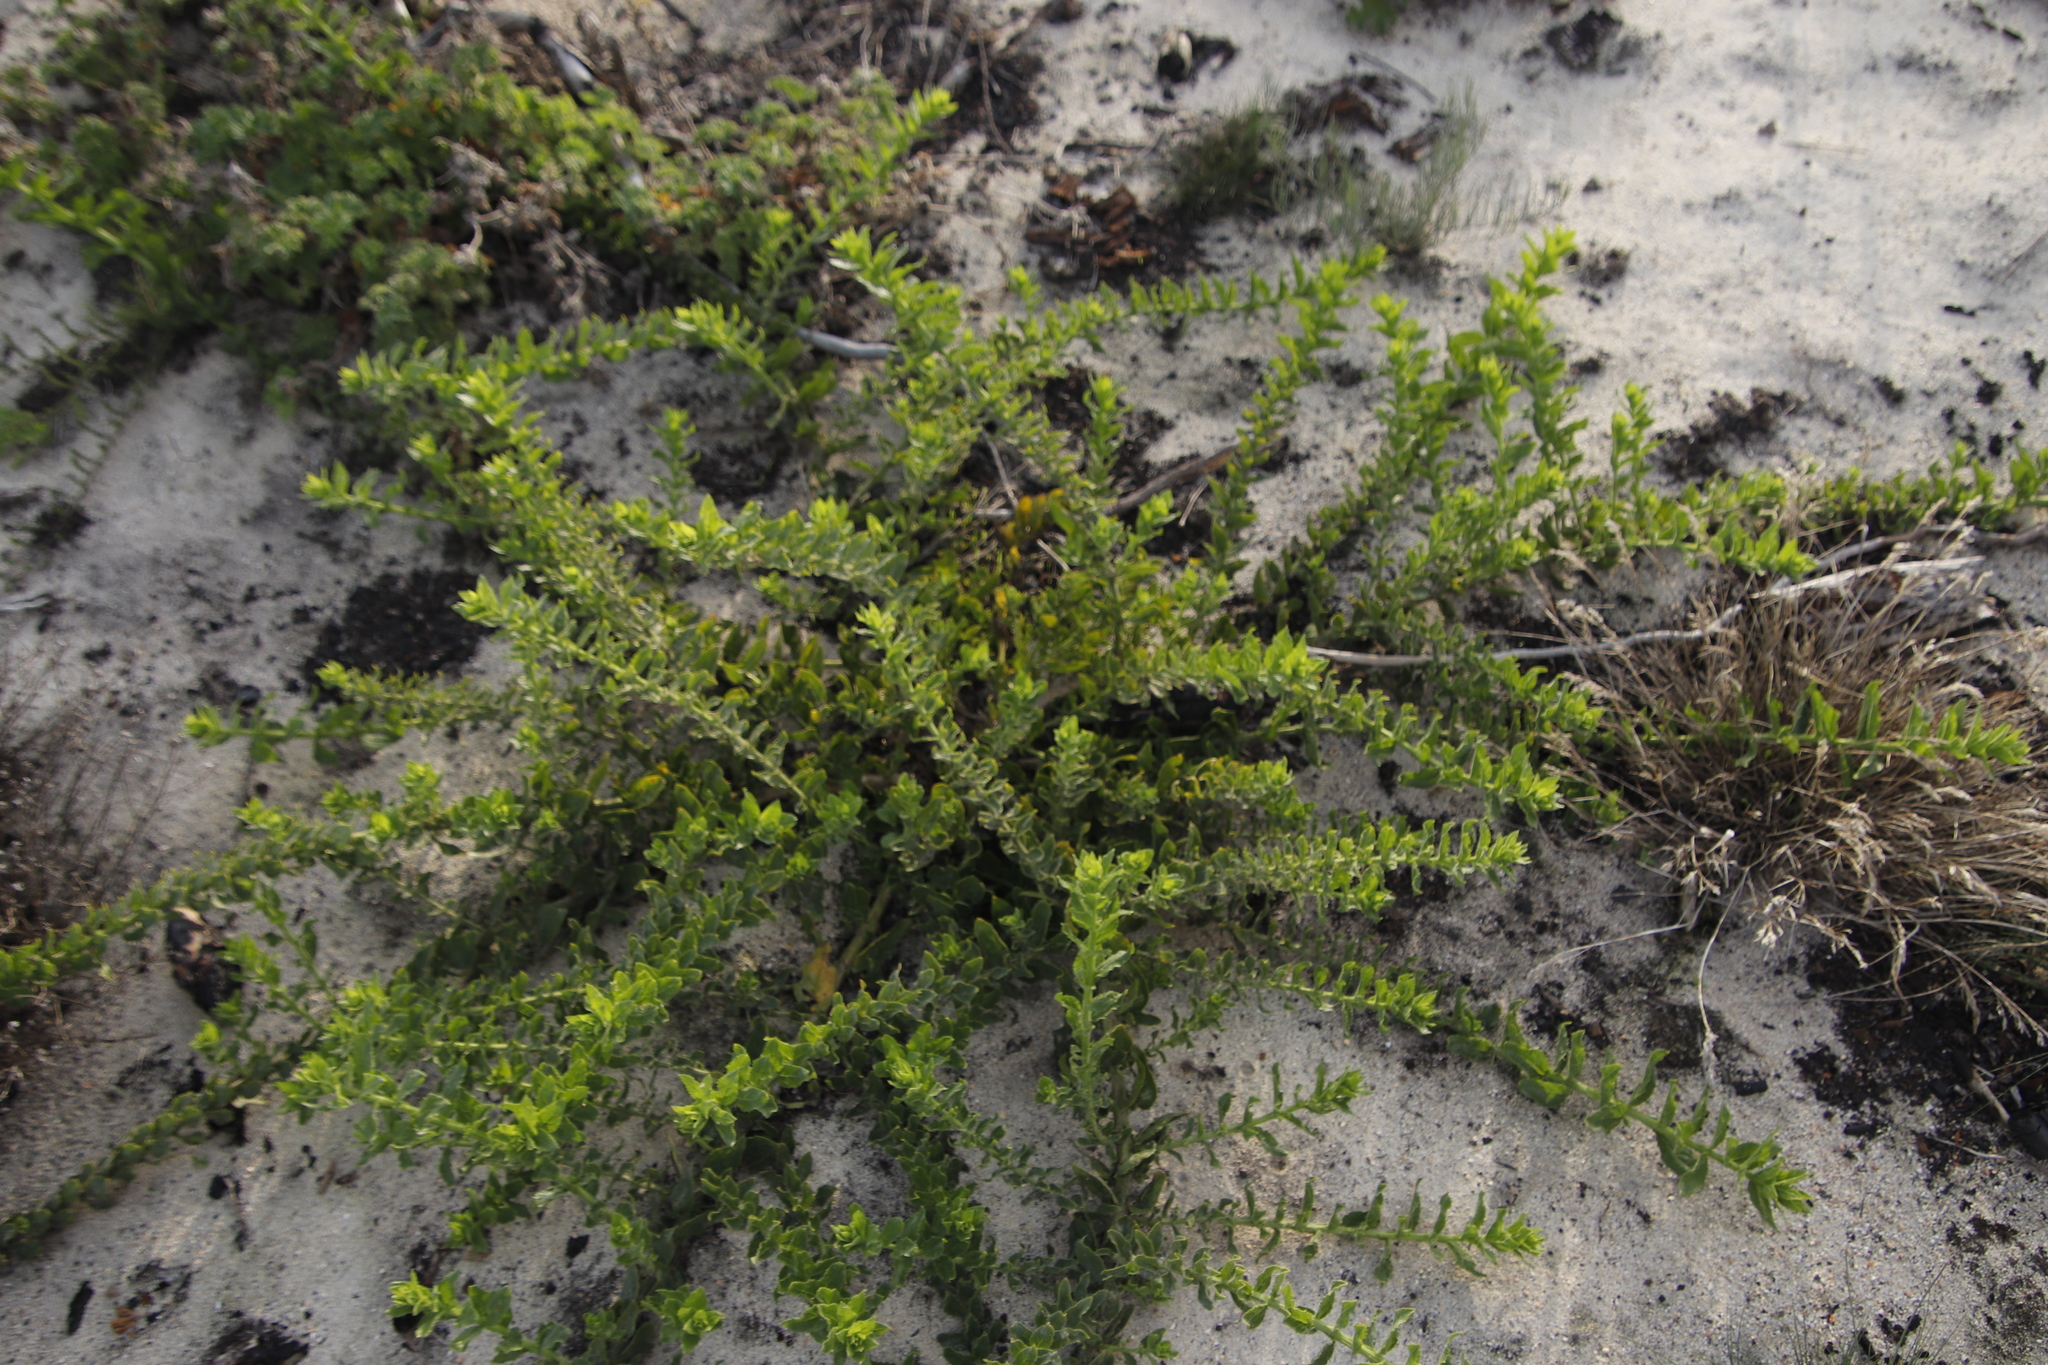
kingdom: Plantae
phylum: Tracheophyta
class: Magnoliopsida
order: Lamiales
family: Scrophulariaceae
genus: Oftia
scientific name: Oftia africana
